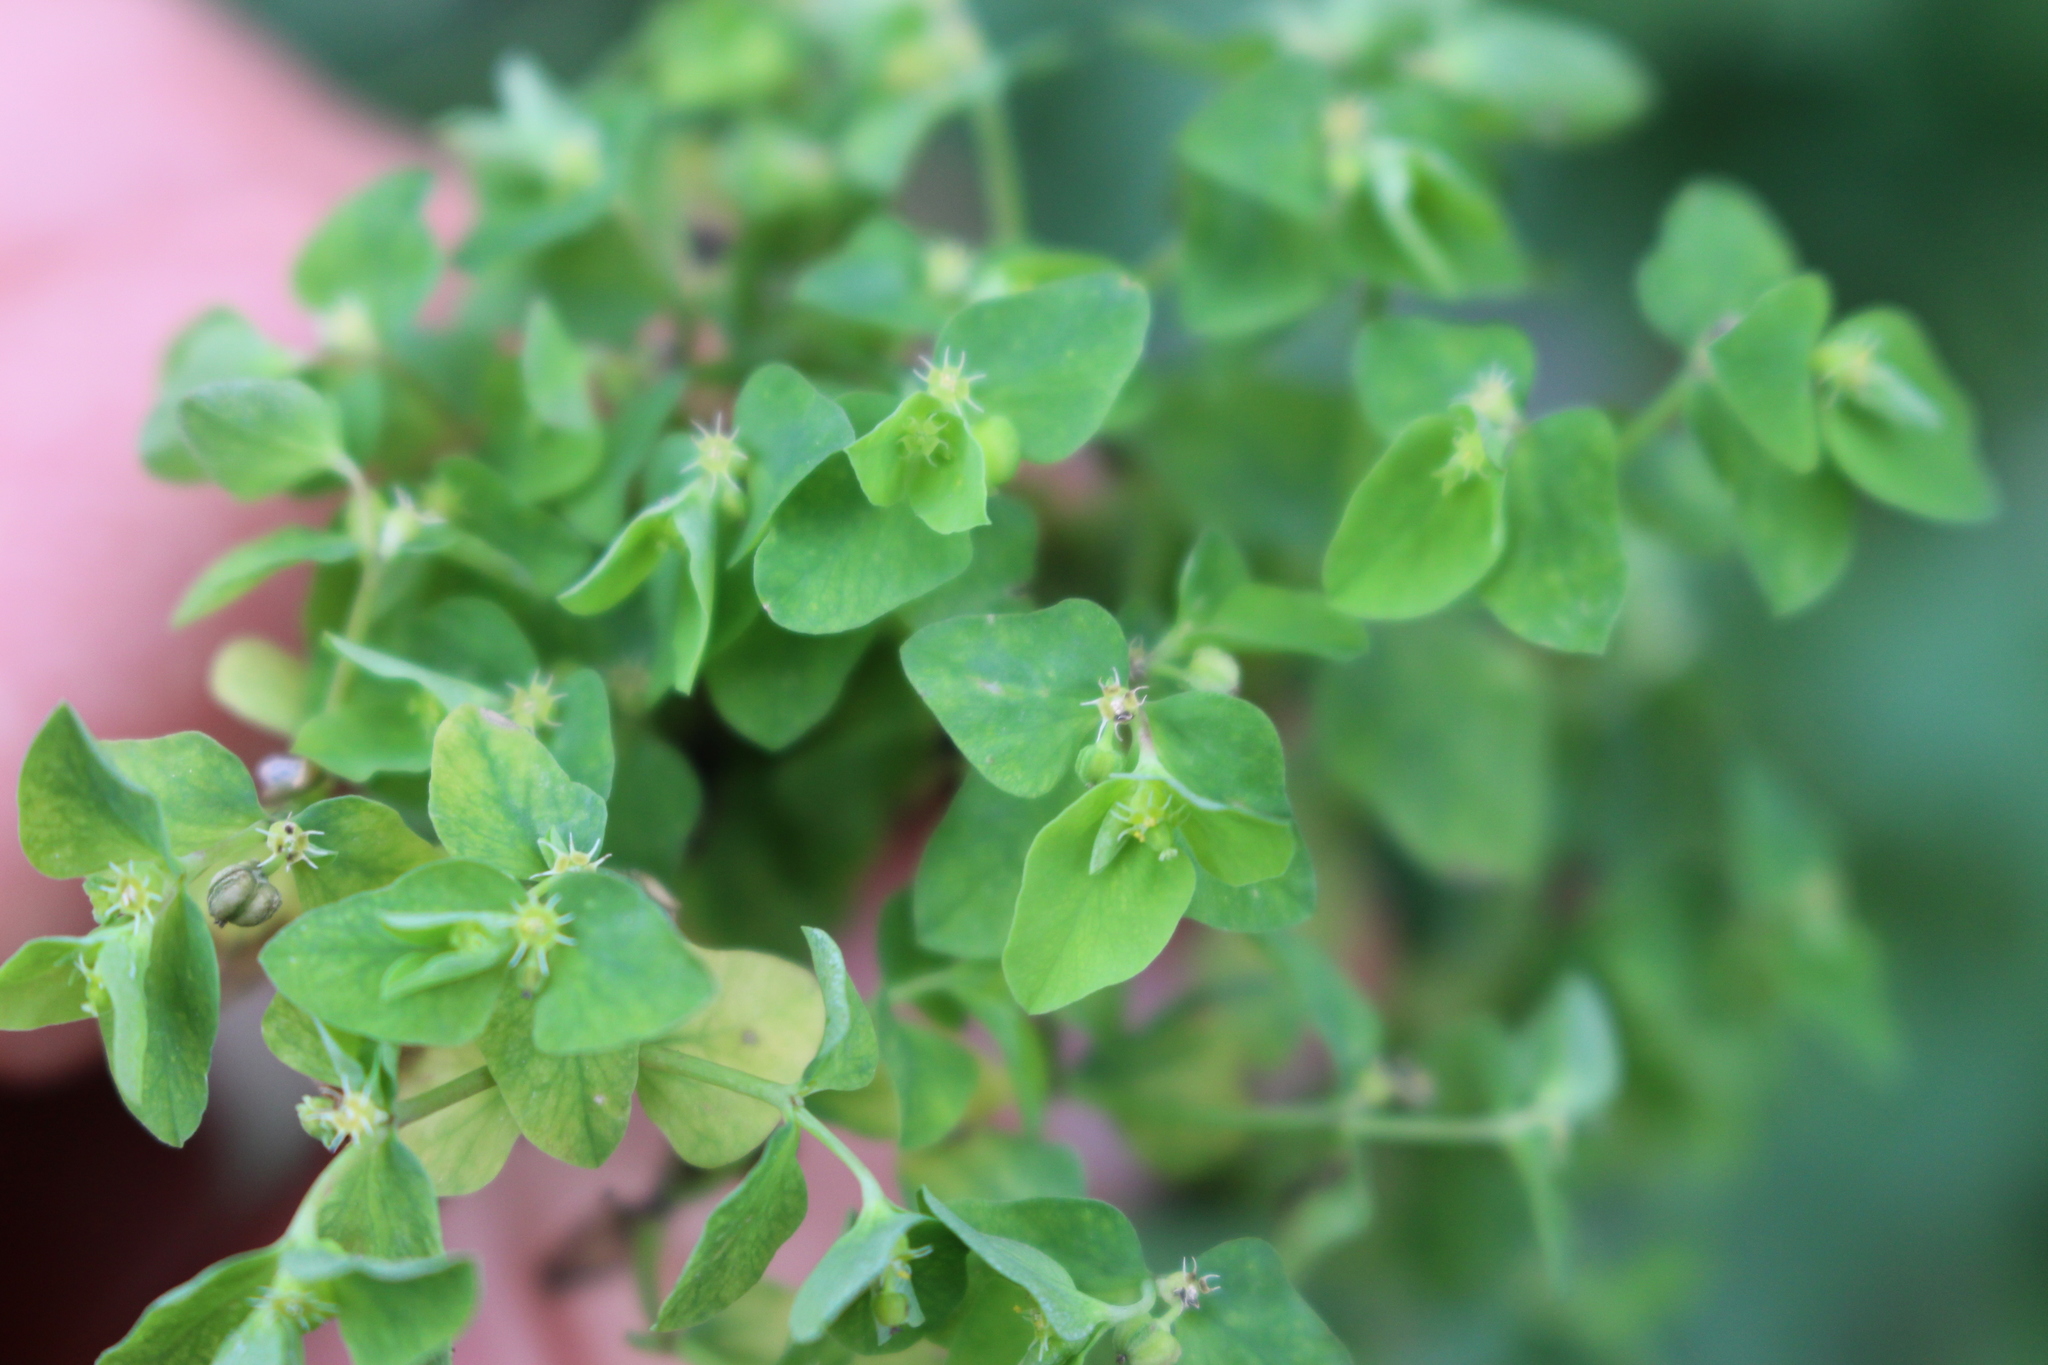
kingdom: Plantae
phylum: Tracheophyta
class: Magnoliopsida
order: Malpighiales
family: Euphorbiaceae
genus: Euphorbia
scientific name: Euphorbia peplus
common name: Petty spurge
